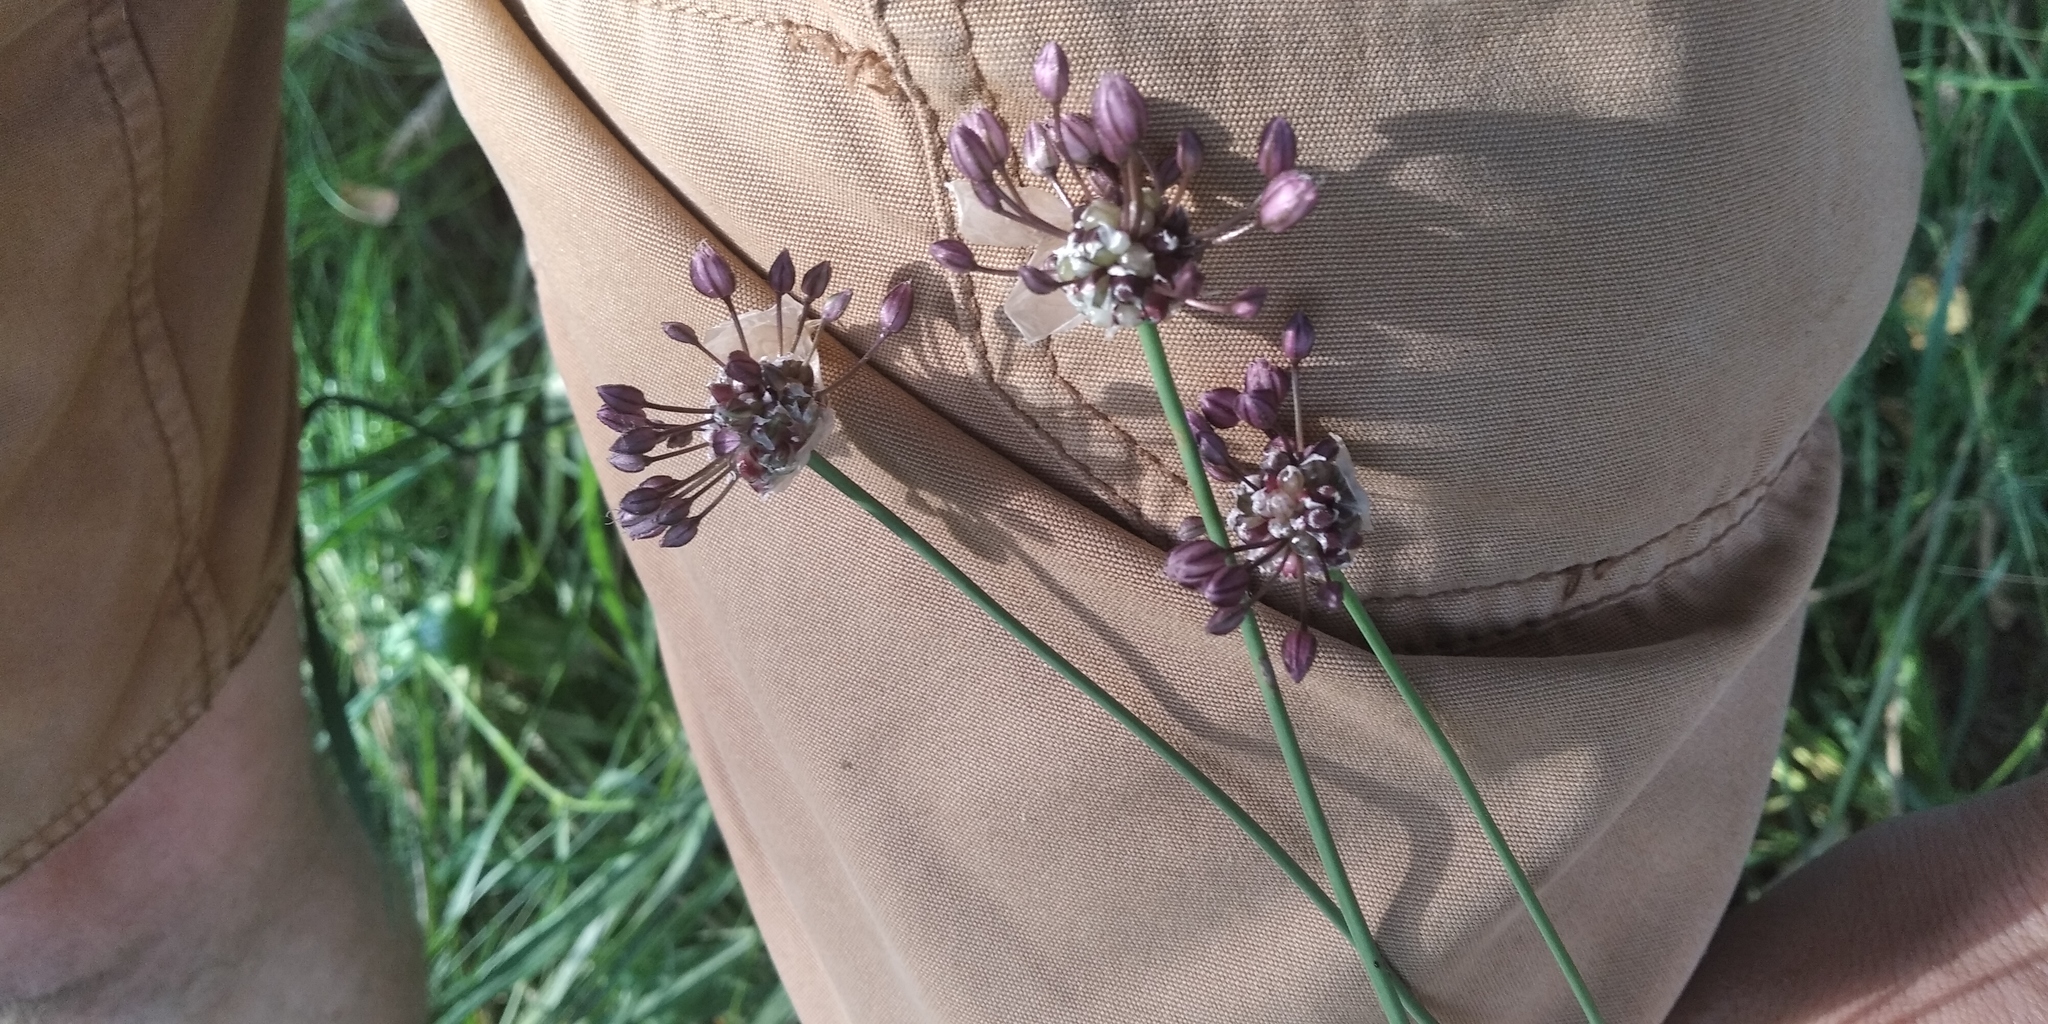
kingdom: Plantae
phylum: Tracheophyta
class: Liliopsida
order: Asparagales
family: Amaryllidaceae
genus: Allium
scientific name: Allium oleraceum
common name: Field garlic
